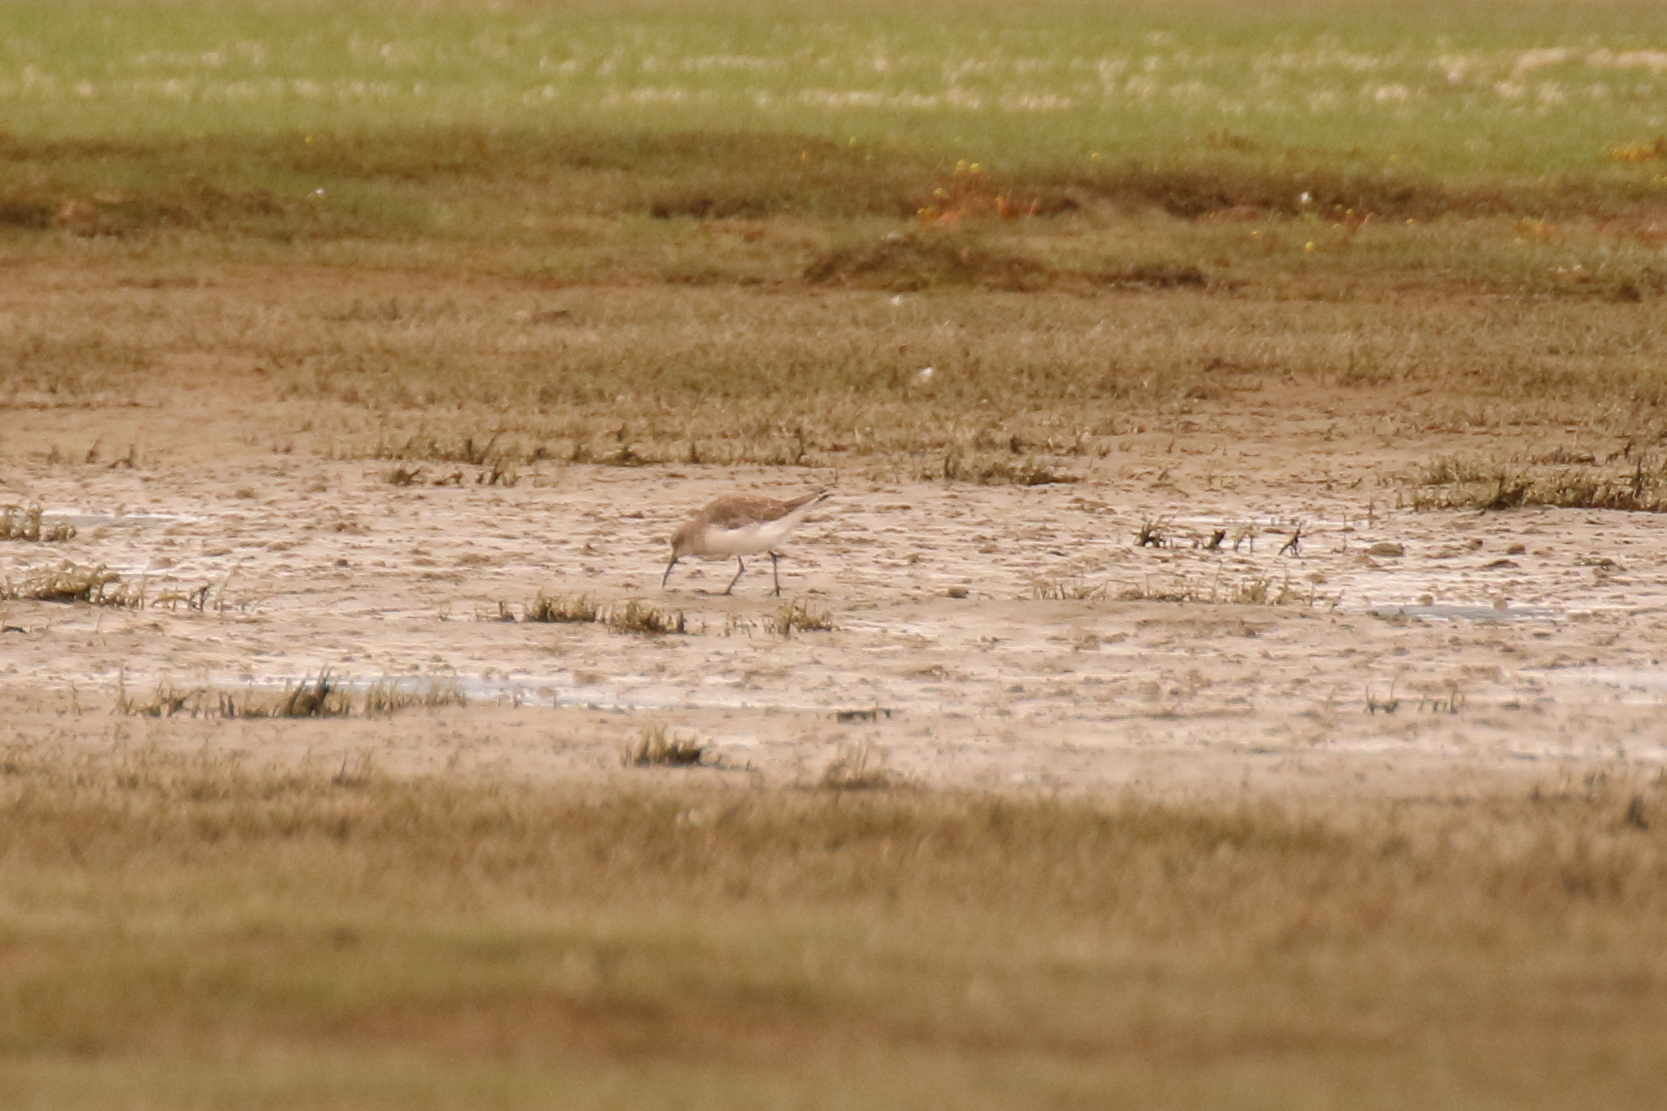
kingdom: Animalia
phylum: Chordata
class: Aves
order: Charadriiformes
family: Scolopacidae
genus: Calidris
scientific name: Calidris ferruginea
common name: Curlew sandpiper
